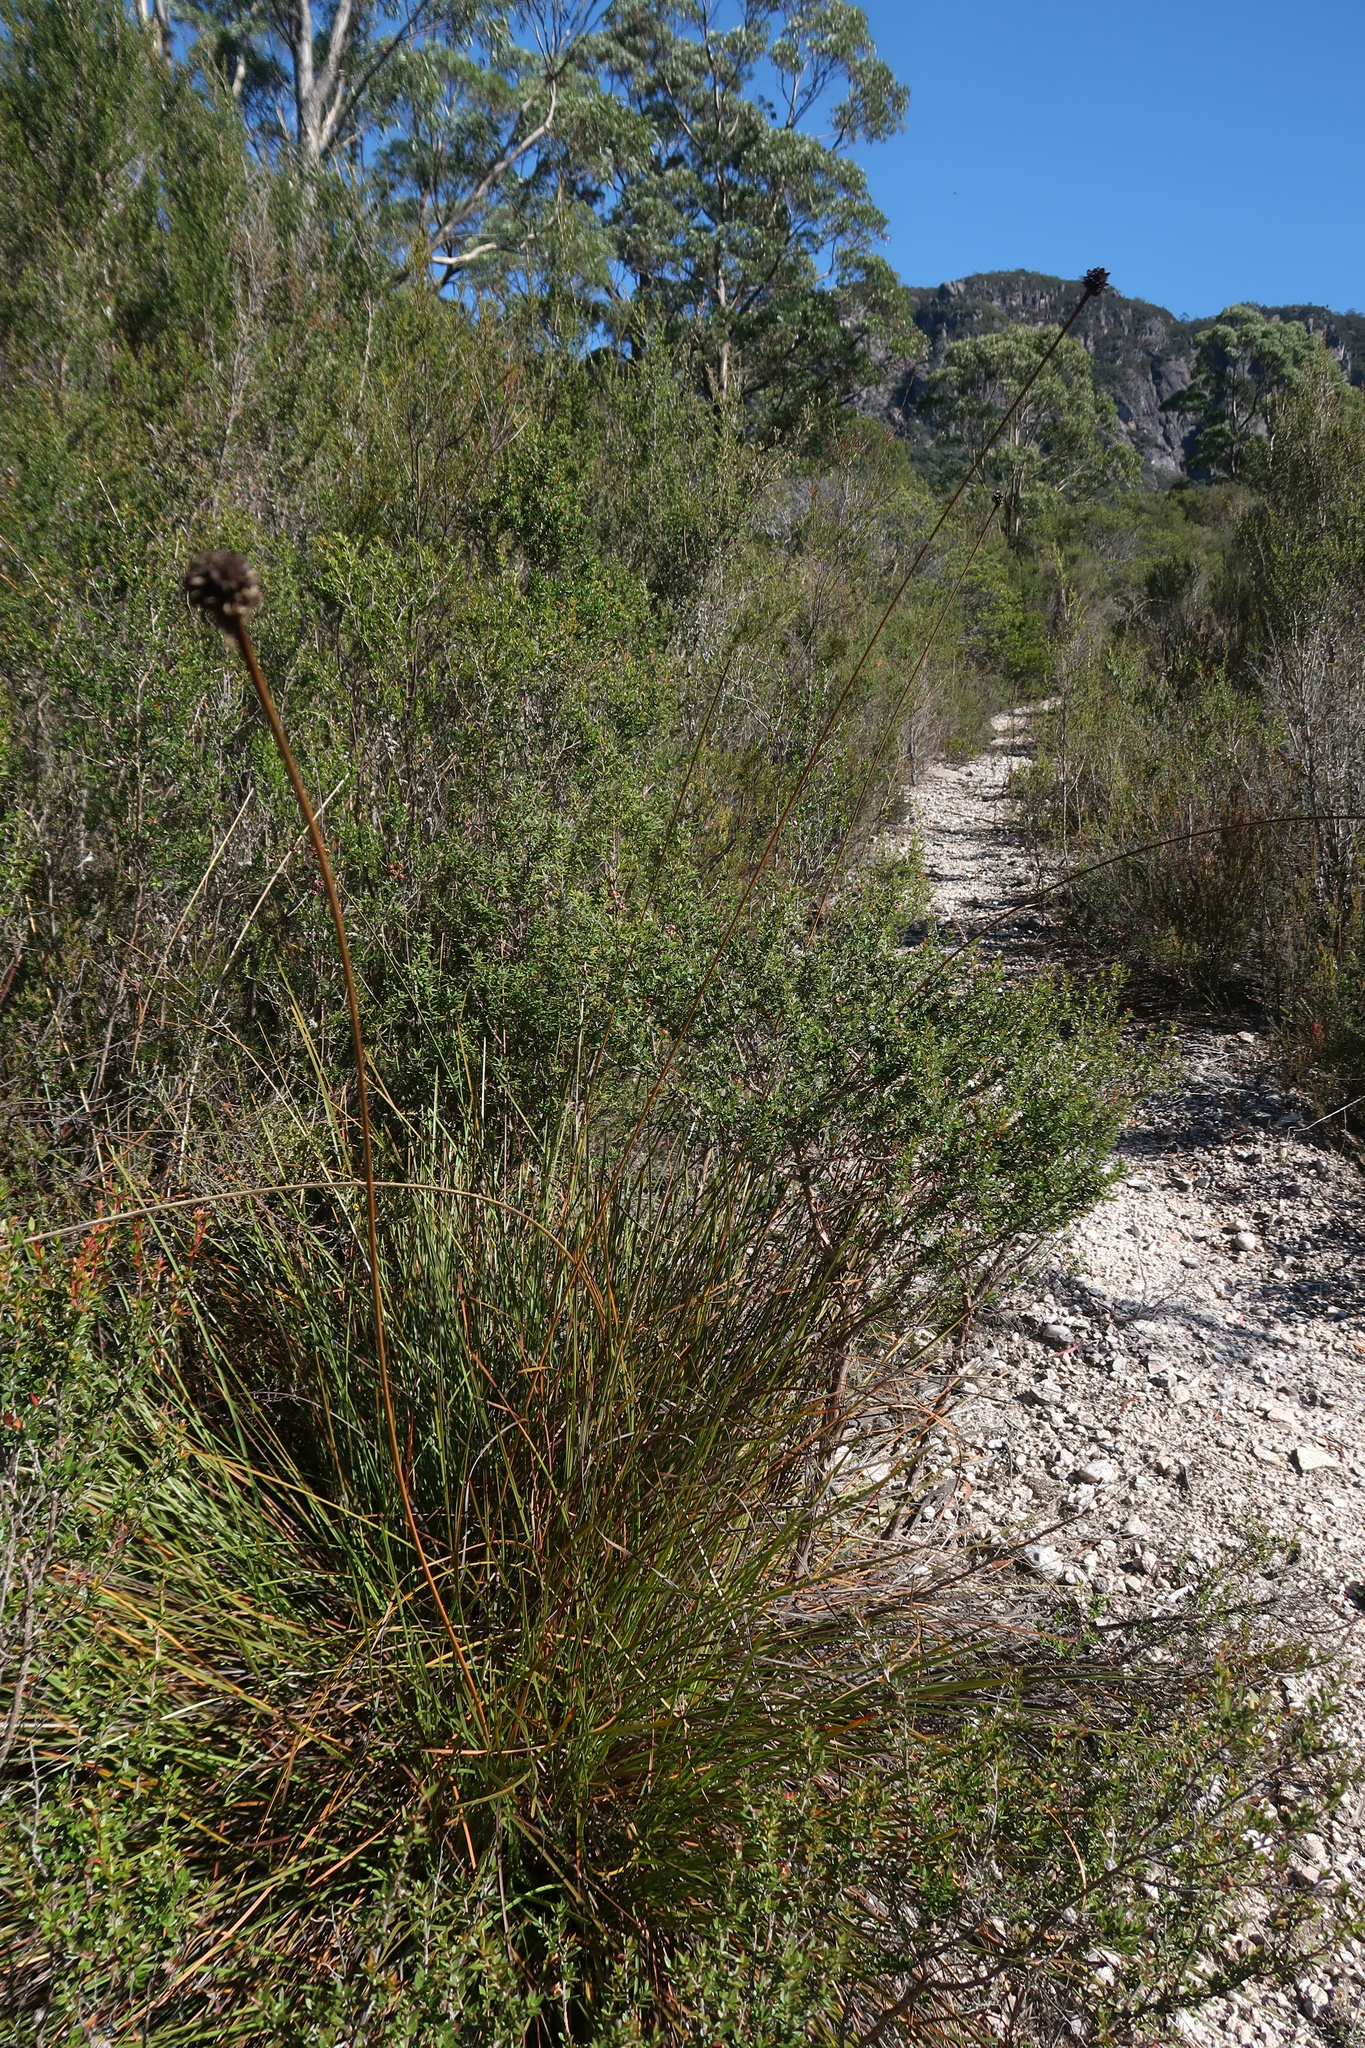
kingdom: Plantae
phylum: Tracheophyta
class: Liliopsida
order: Poales
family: Cyperaceae
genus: Gymnoschoenus
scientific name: Gymnoschoenus sphaerocephalus
